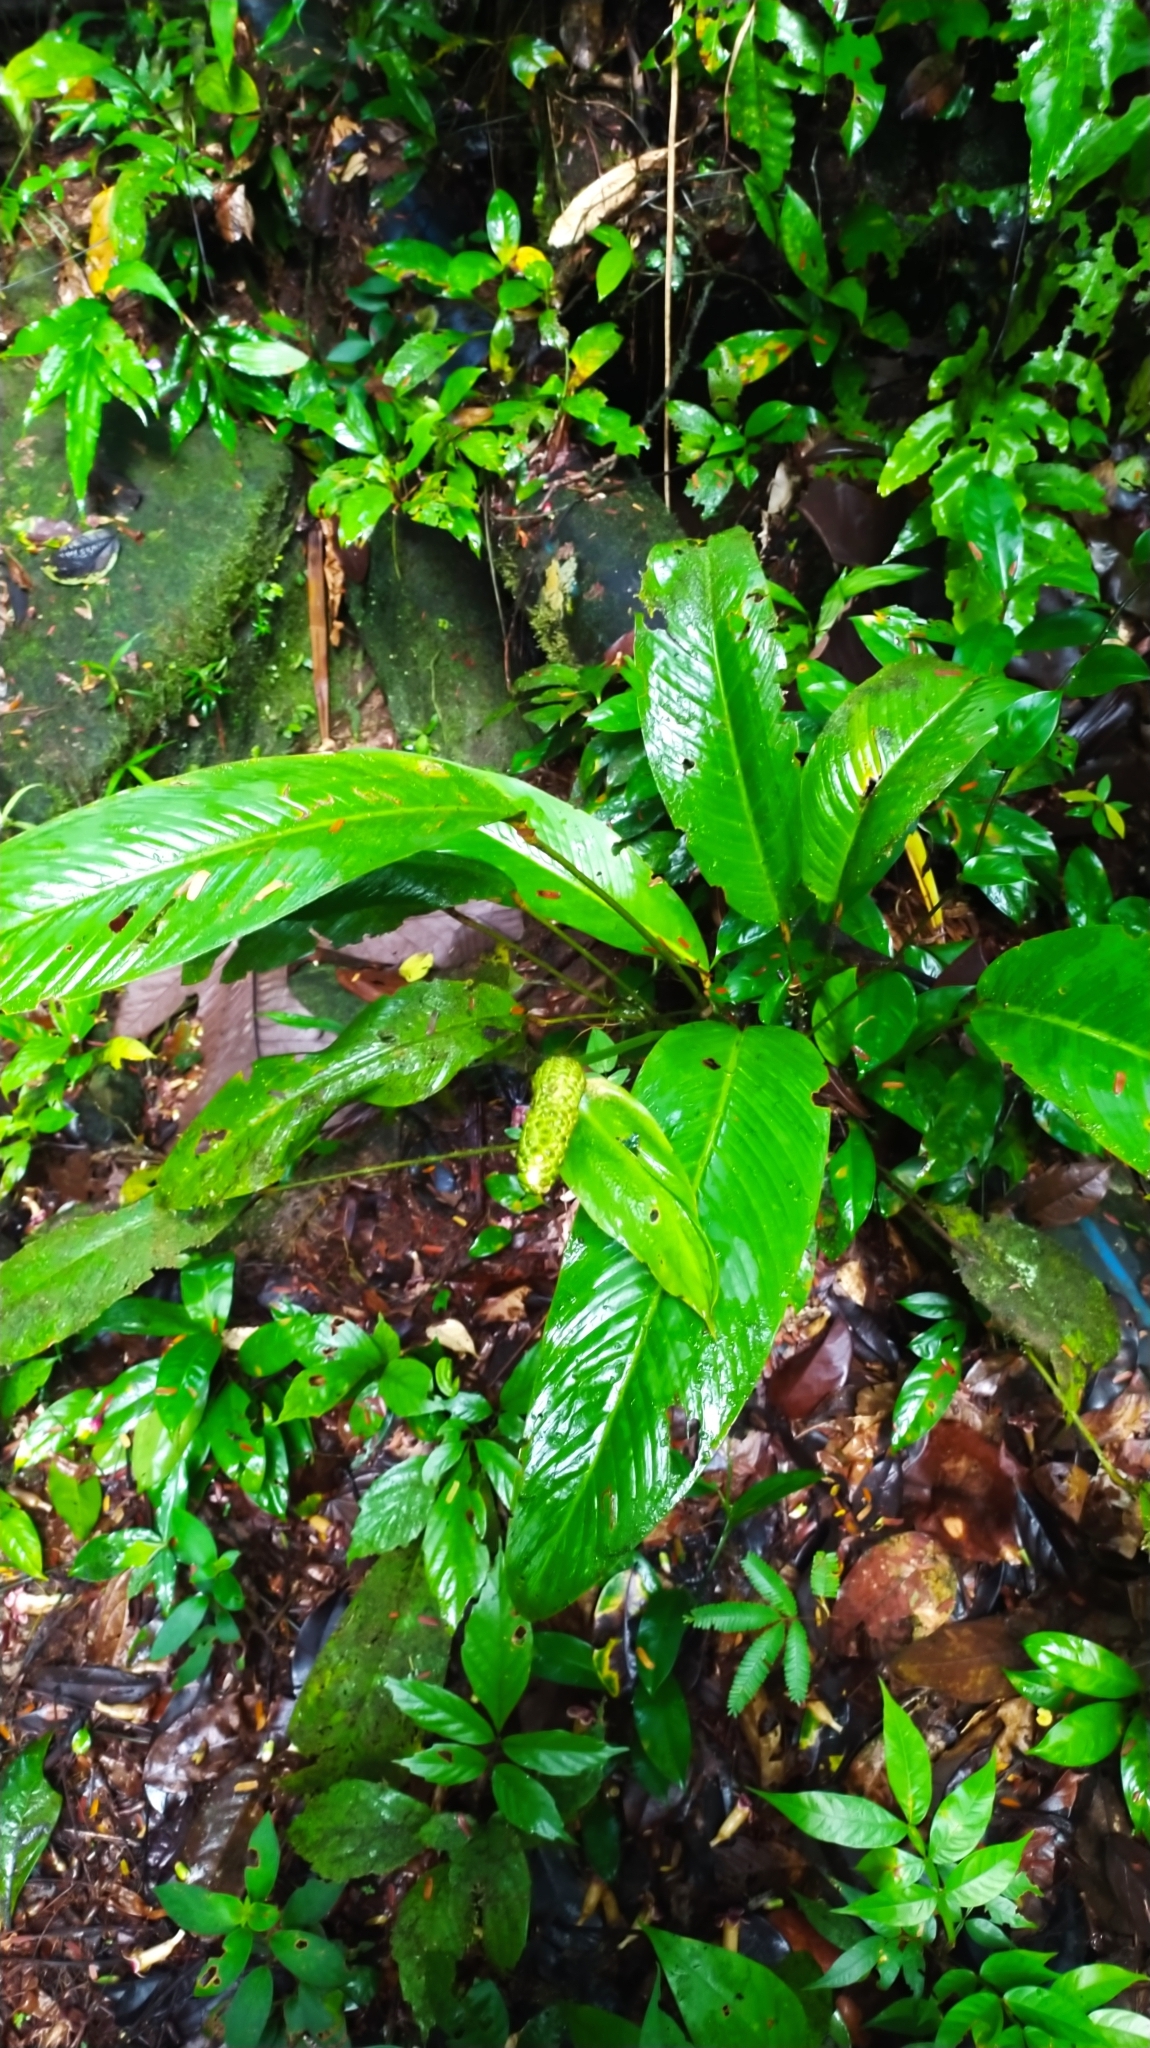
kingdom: Plantae
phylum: Tracheophyta
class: Liliopsida
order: Alismatales
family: Araceae
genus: Spathiphyllum
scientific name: Spathiphyllum humboldtii
